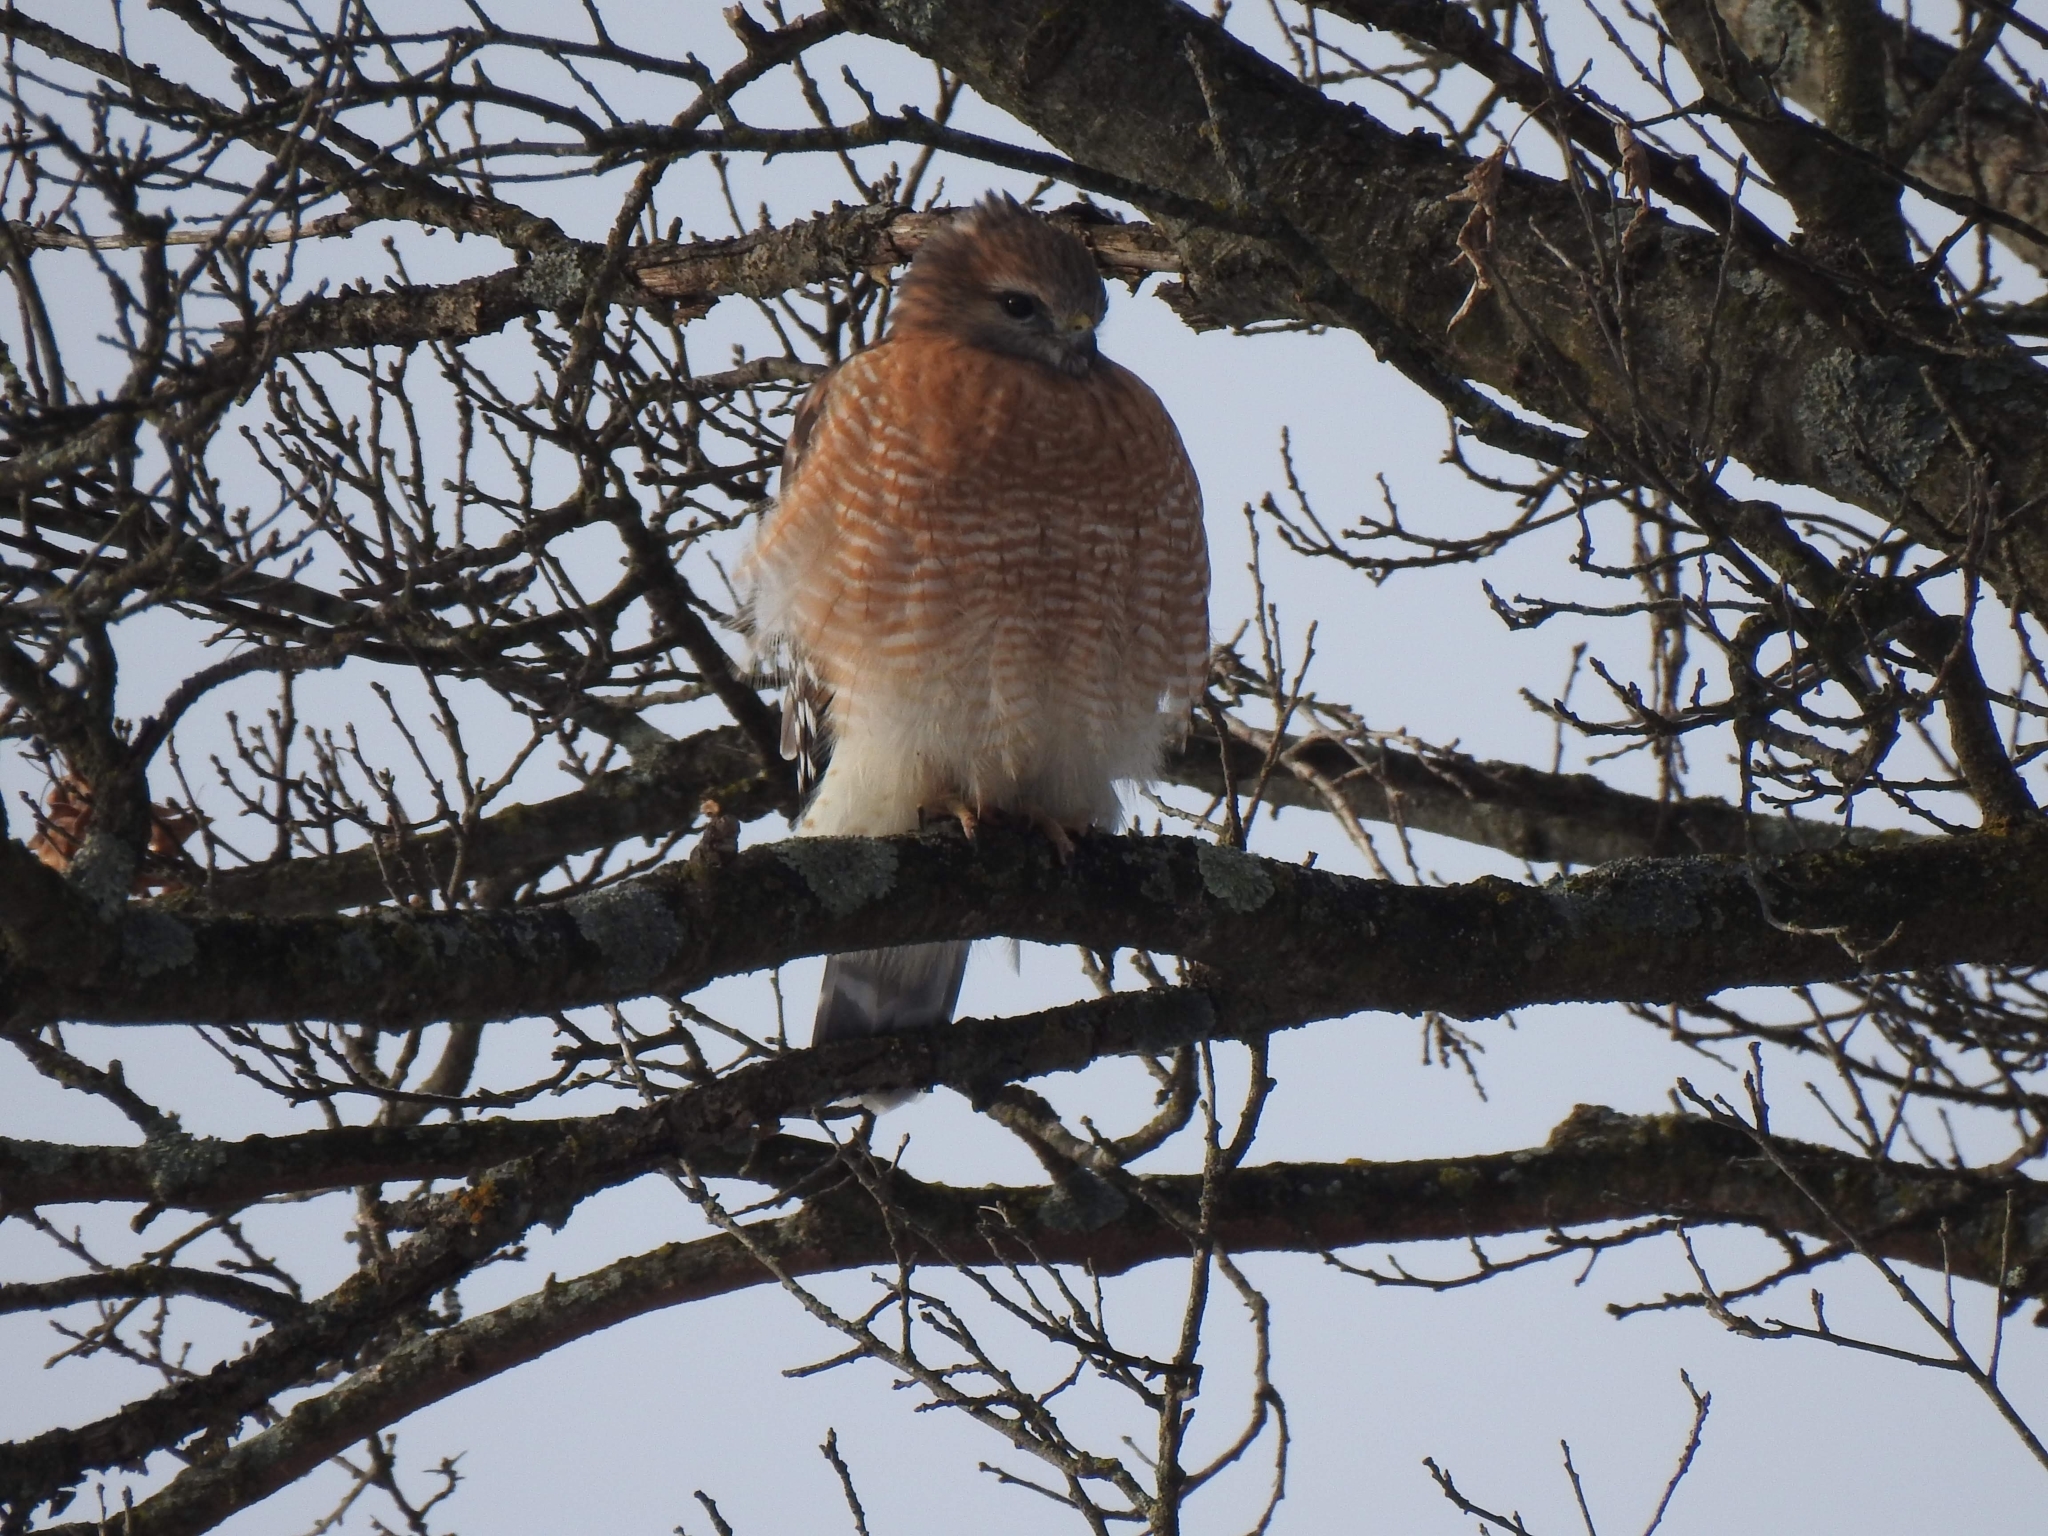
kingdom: Animalia
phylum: Chordata
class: Aves
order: Accipitriformes
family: Accipitridae
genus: Buteo
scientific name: Buteo lineatus
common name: Red-shouldered hawk
